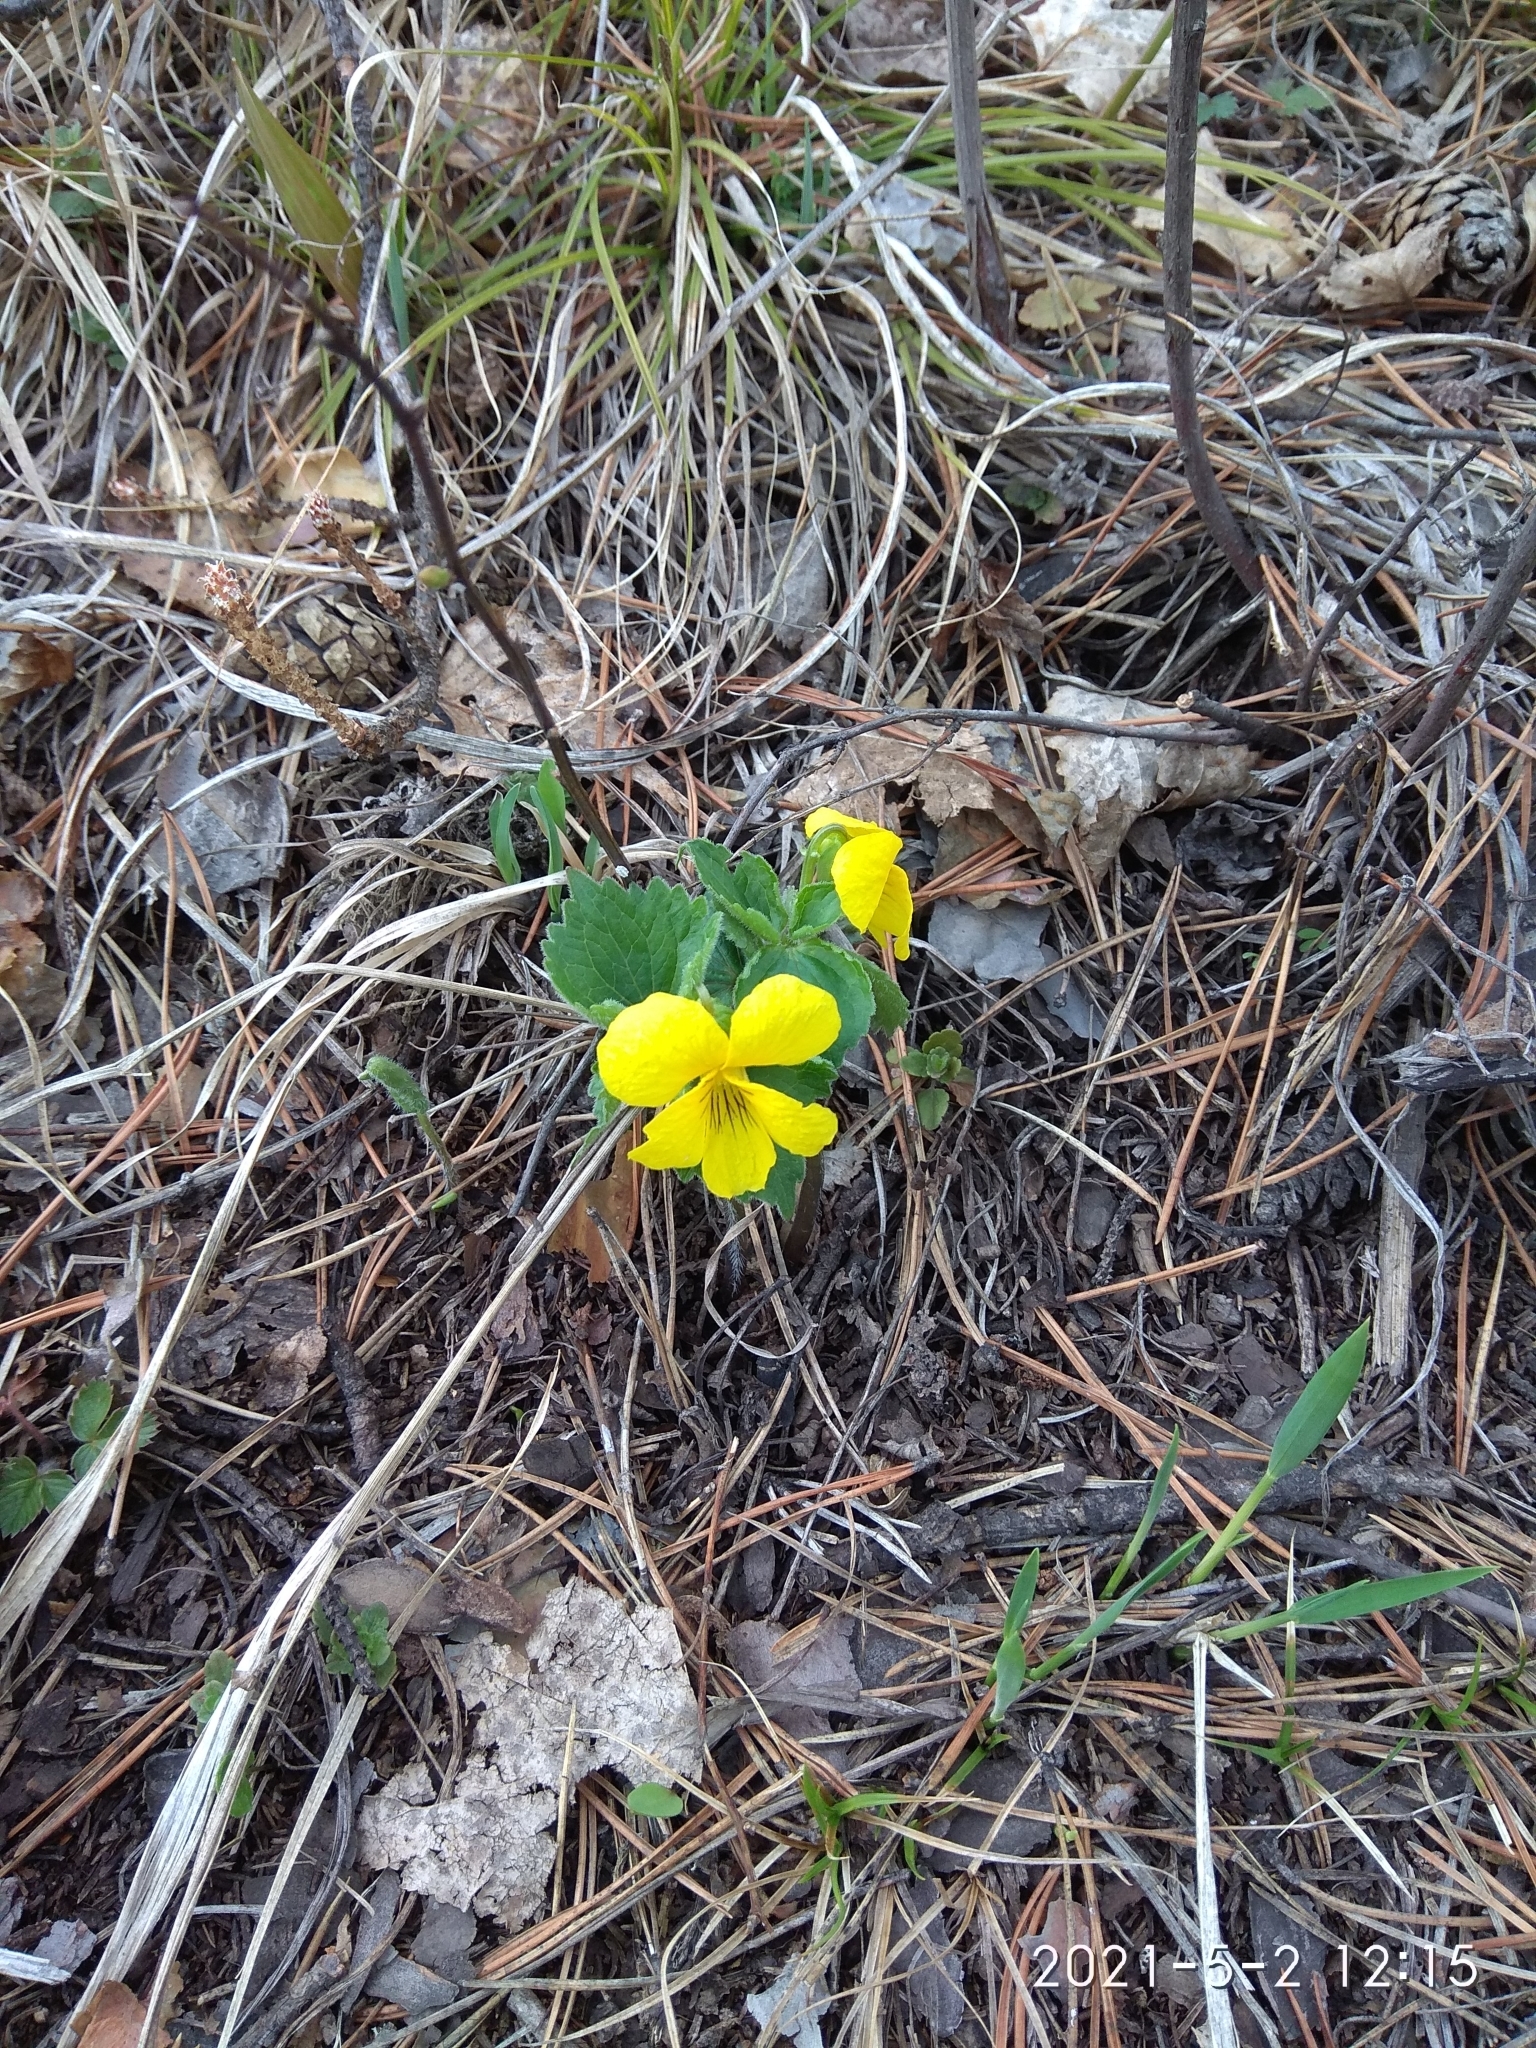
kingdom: Plantae
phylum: Tracheophyta
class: Magnoliopsida
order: Malpighiales
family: Violaceae
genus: Viola
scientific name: Viola uniflora
